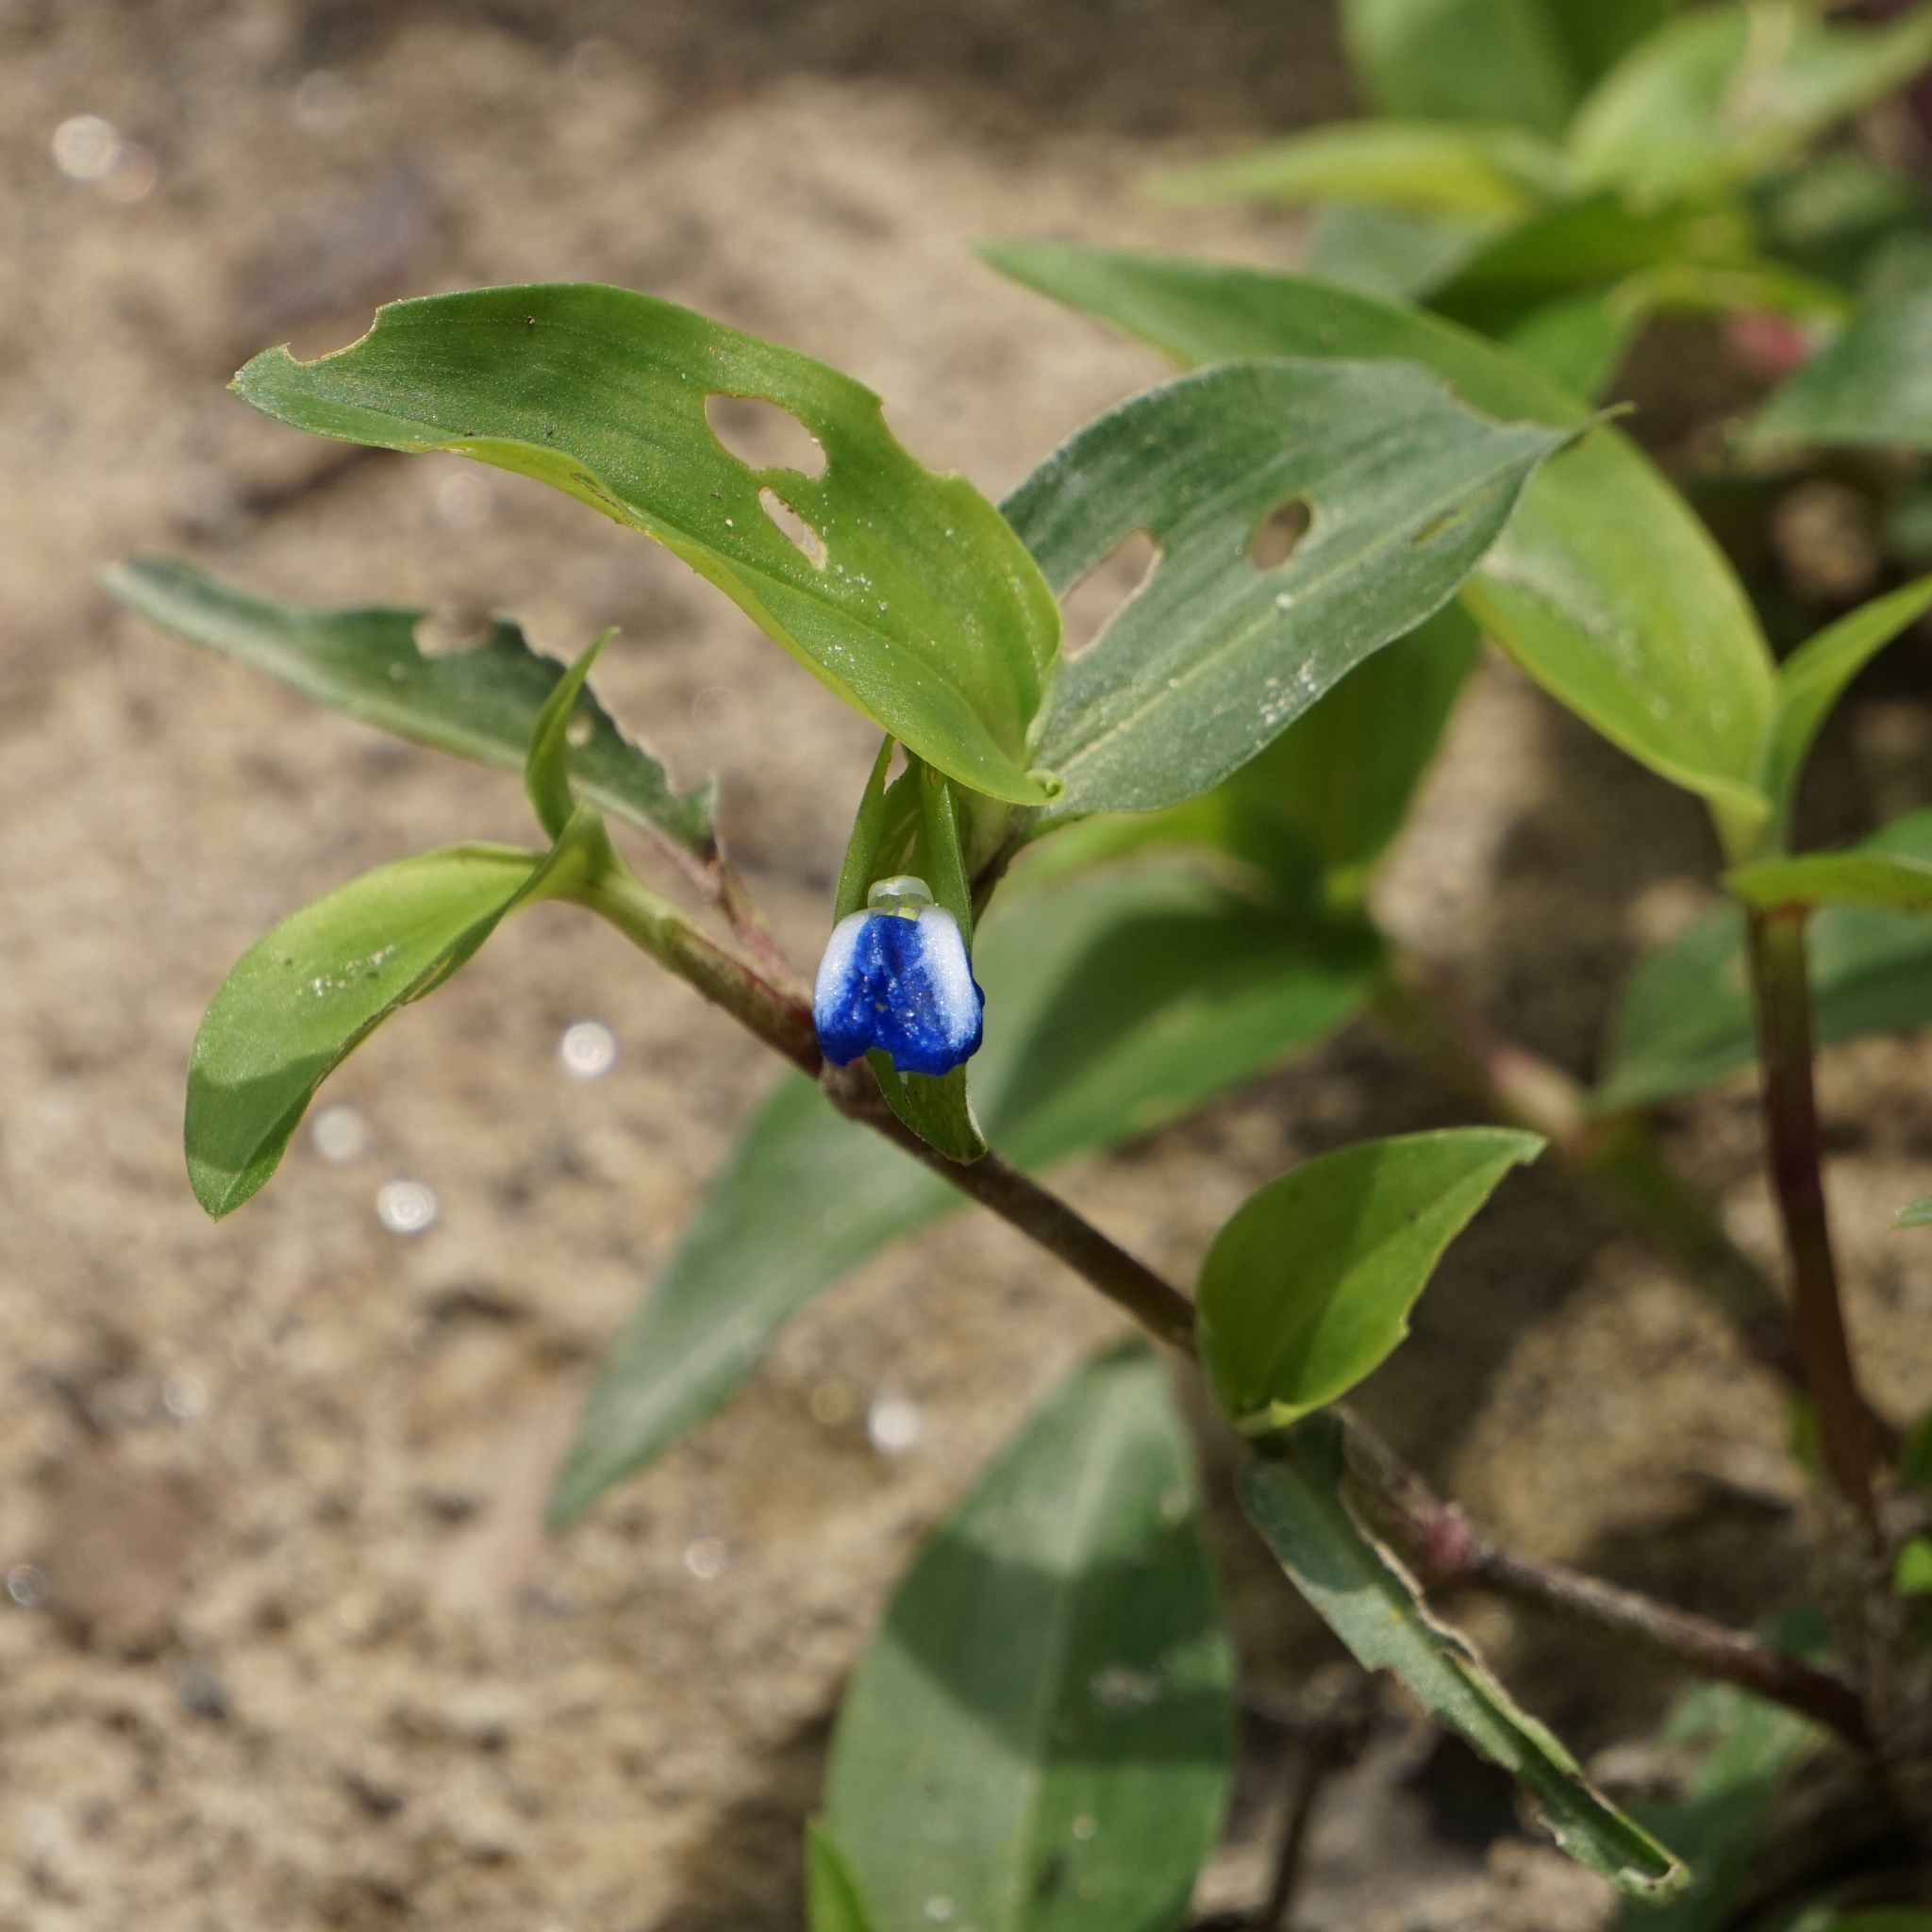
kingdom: Plantae
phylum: Tracheophyta
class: Liliopsida
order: Commelinales
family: Commelinaceae
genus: Commelina
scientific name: Commelina communis
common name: Asiatic dayflower
